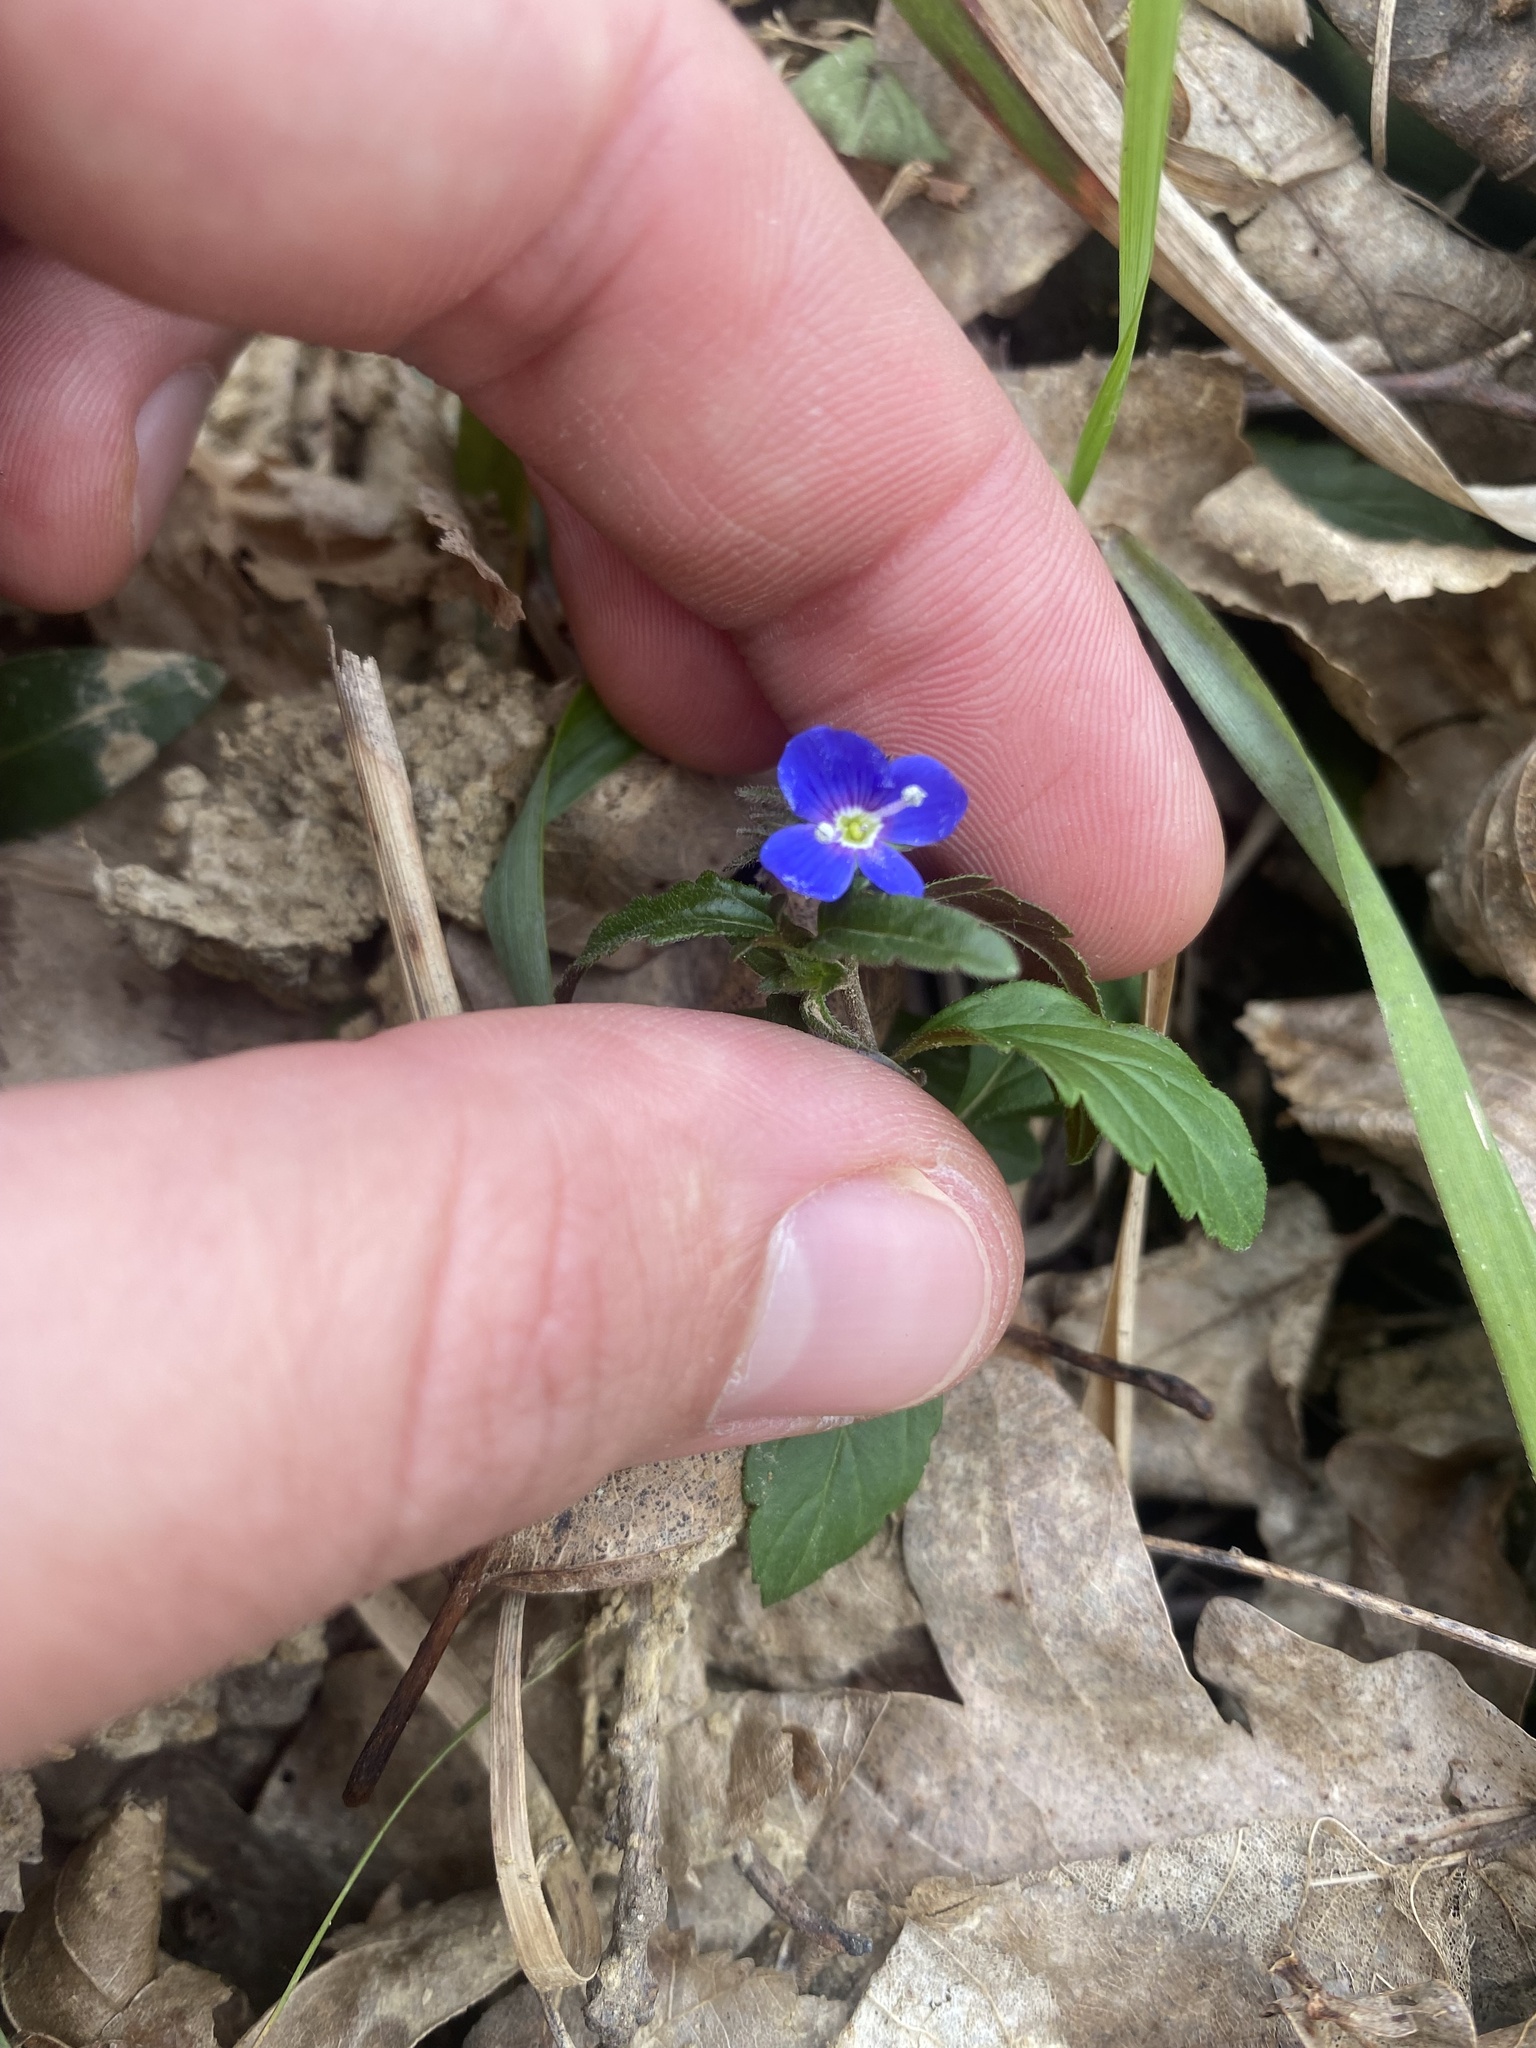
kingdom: Plantae
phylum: Tracheophyta
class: Magnoliopsida
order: Lamiales
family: Plantaginaceae
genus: Veronica
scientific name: Veronica
